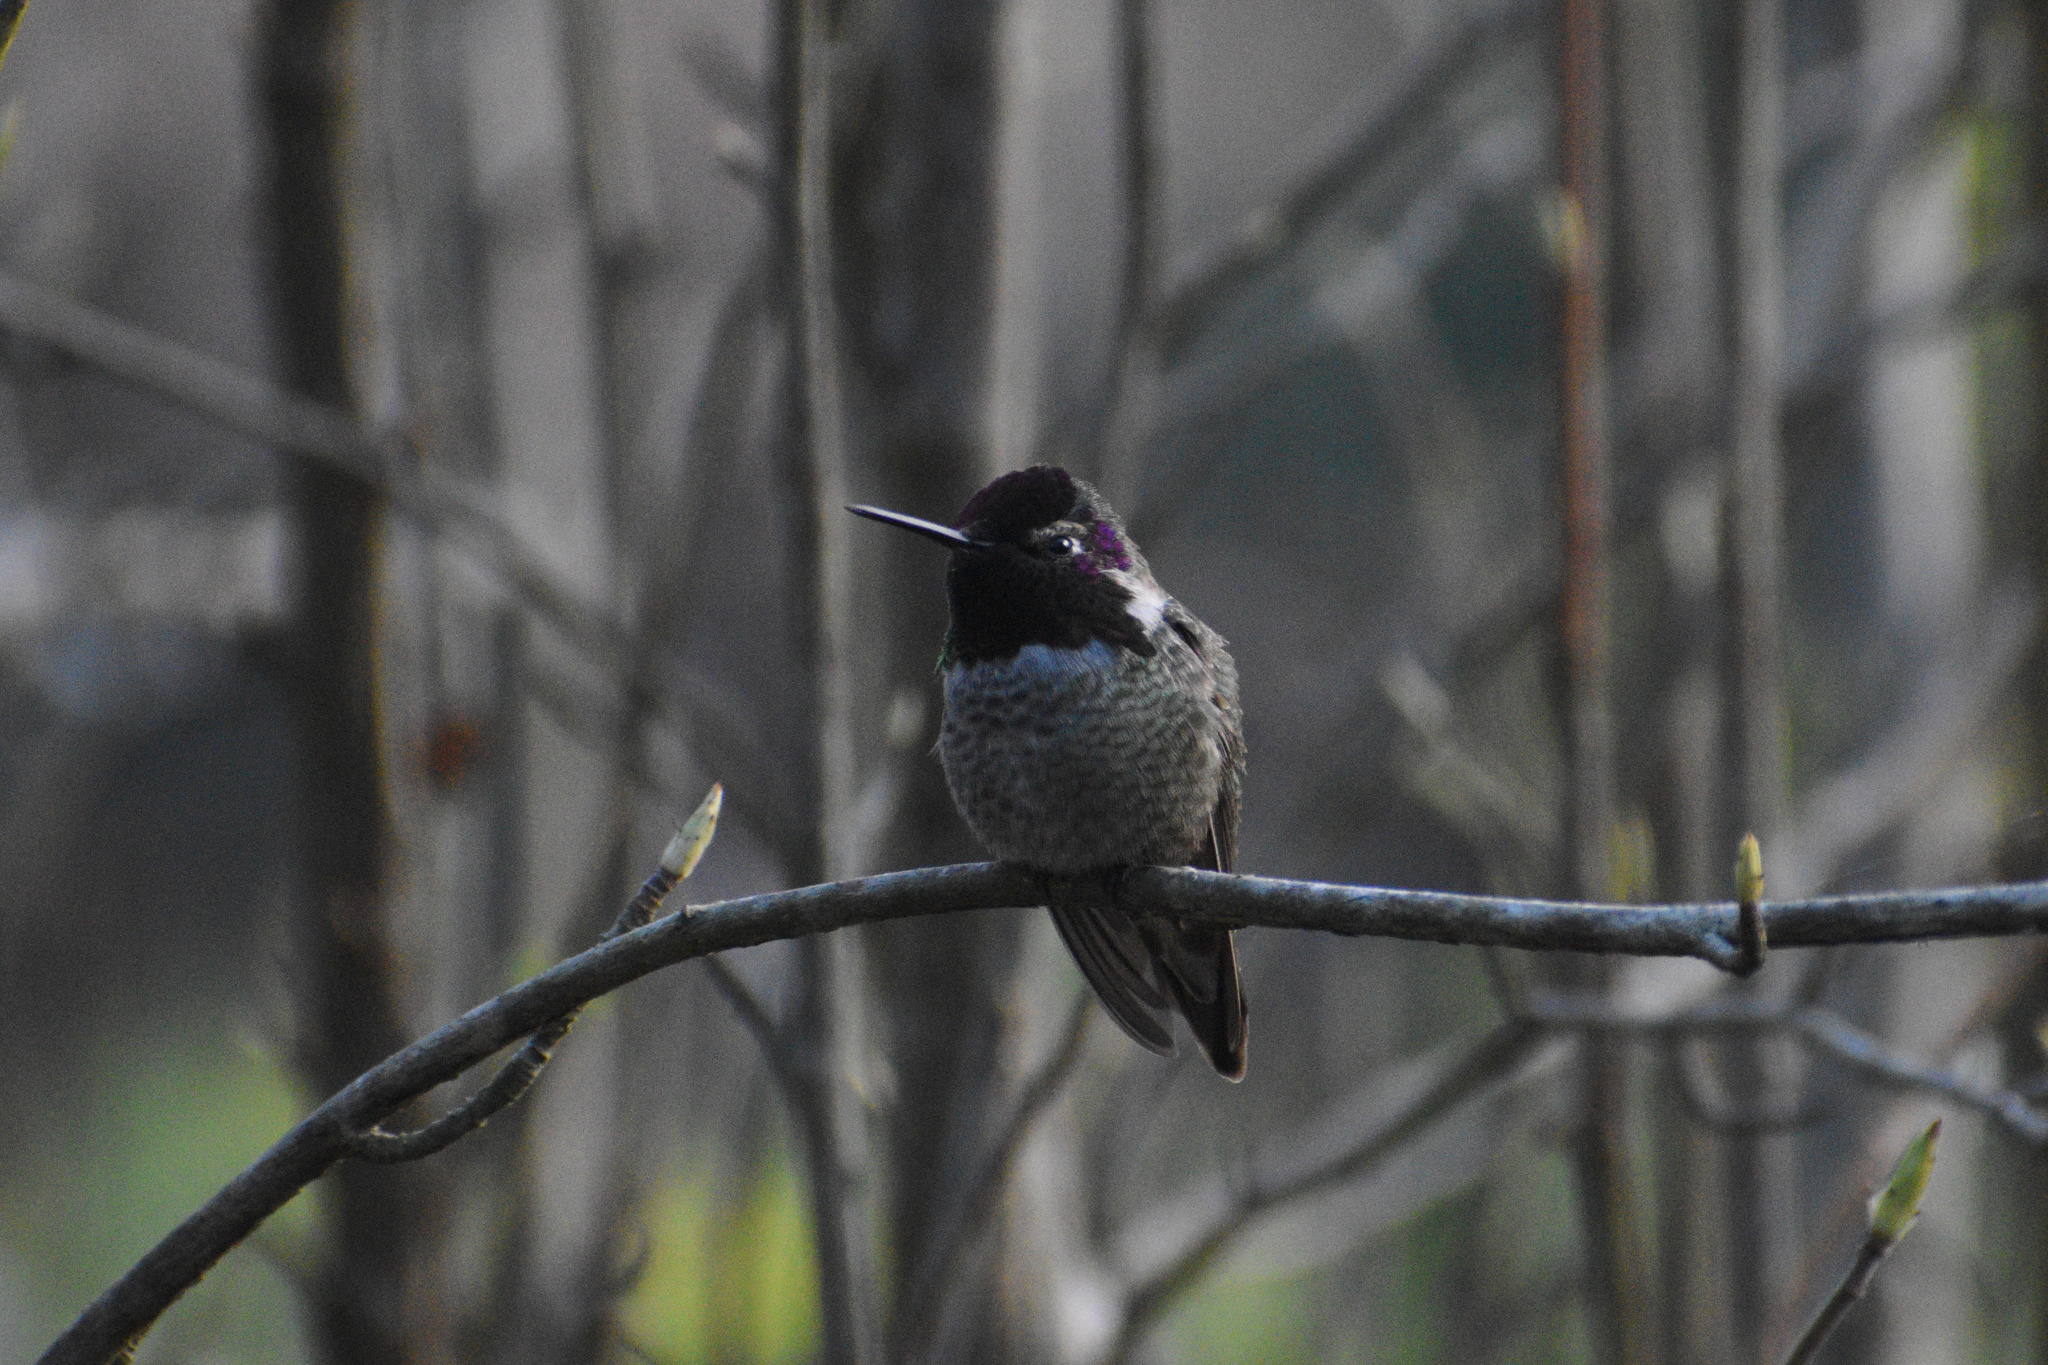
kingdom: Animalia
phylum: Chordata
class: Aves
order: Apodiformes
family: Trochilidae
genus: Calypte
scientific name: Calypte anna
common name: Anna's hummingbird
